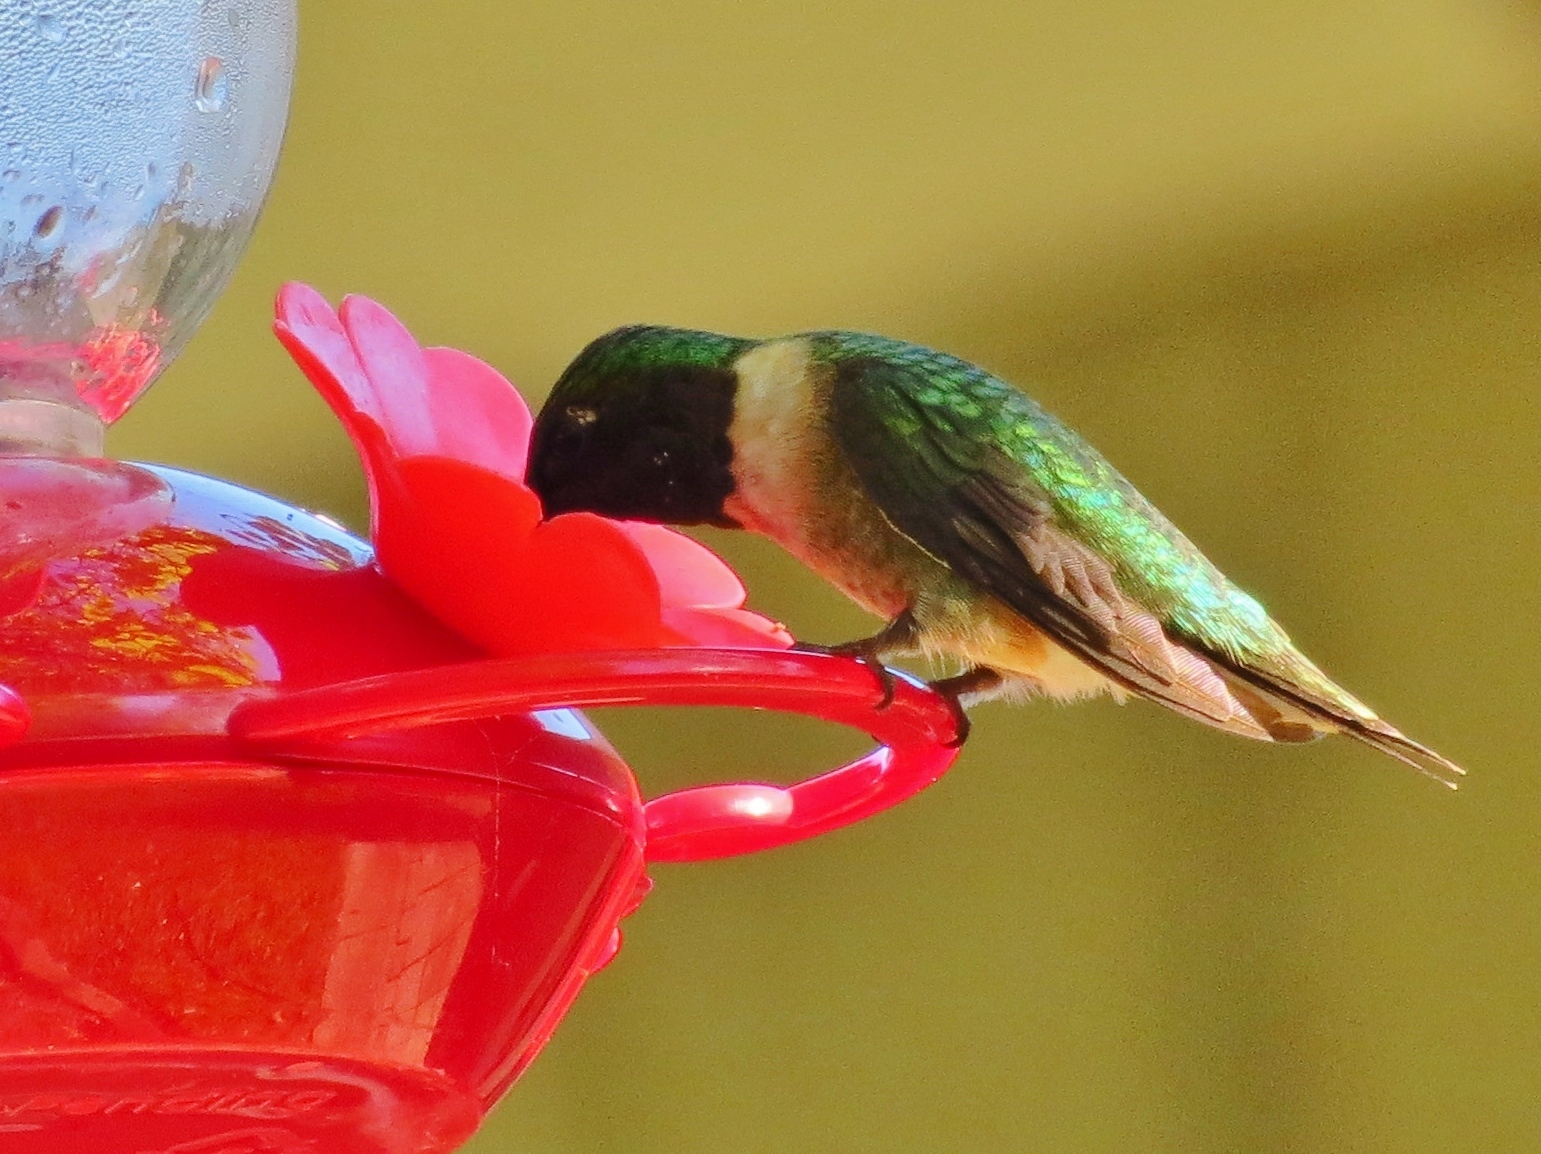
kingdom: Animalia
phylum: Chordata
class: Aves
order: Apodiformes
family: Trochilidae
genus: Archilochus
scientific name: Archilochus colubris
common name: Ruby-throated hummingbird
